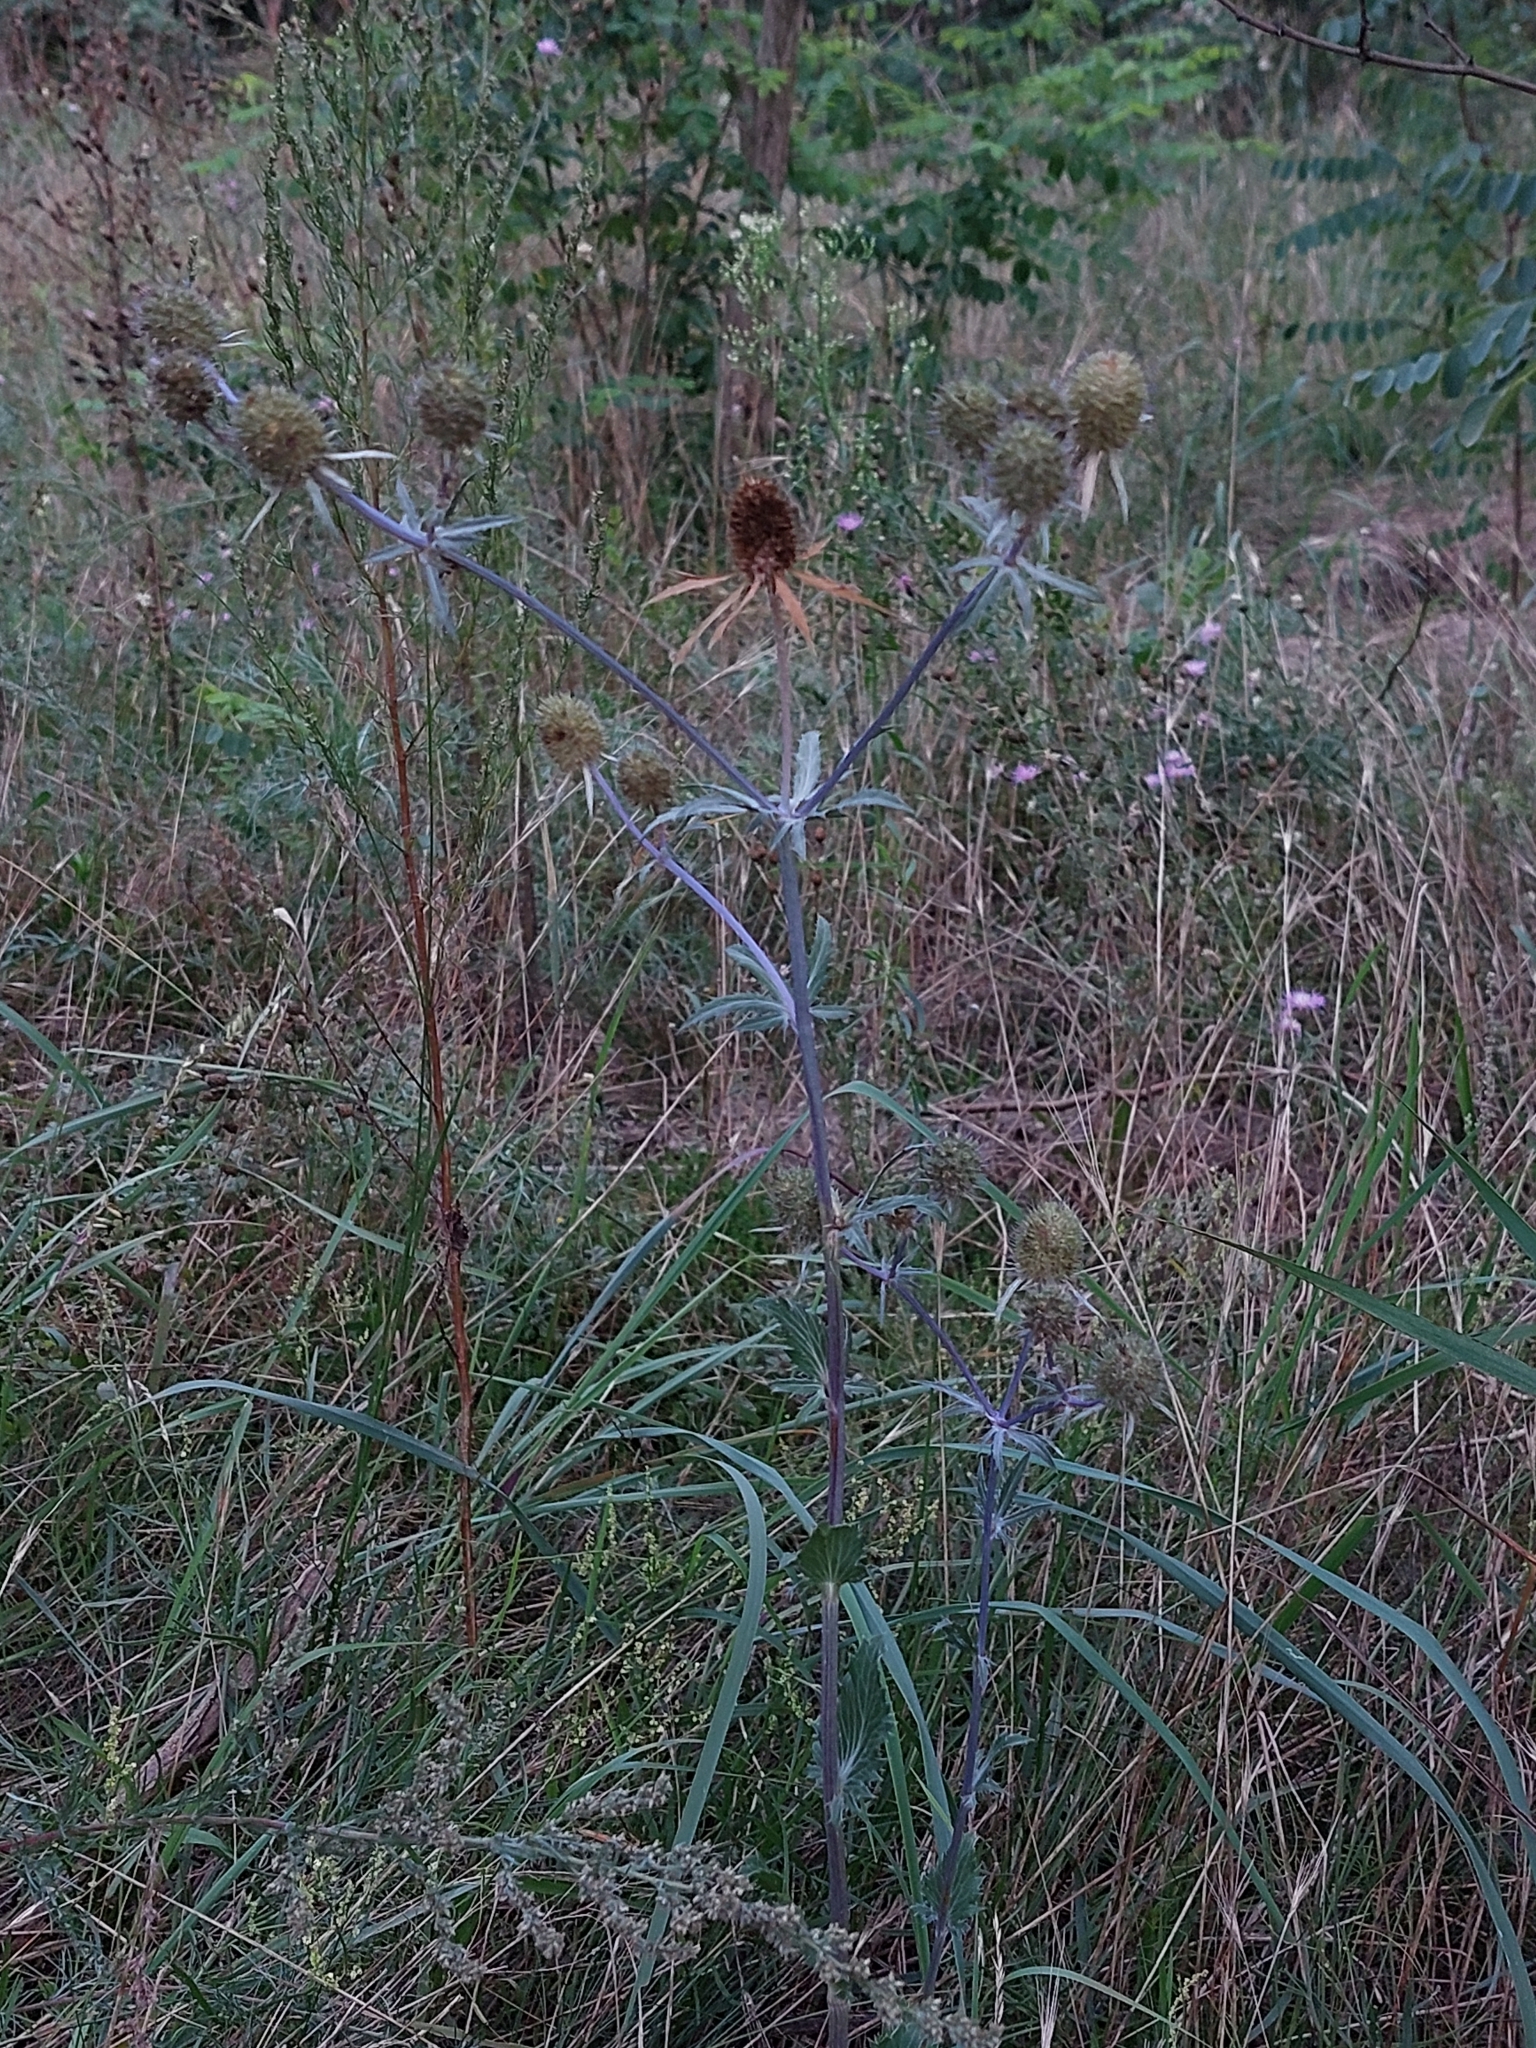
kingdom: Plantae
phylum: Tracheophyta
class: Magnoliopsida
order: Apiales
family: Apiaceae
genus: Eryngium
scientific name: Eryngium planum
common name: Blue eryngo
